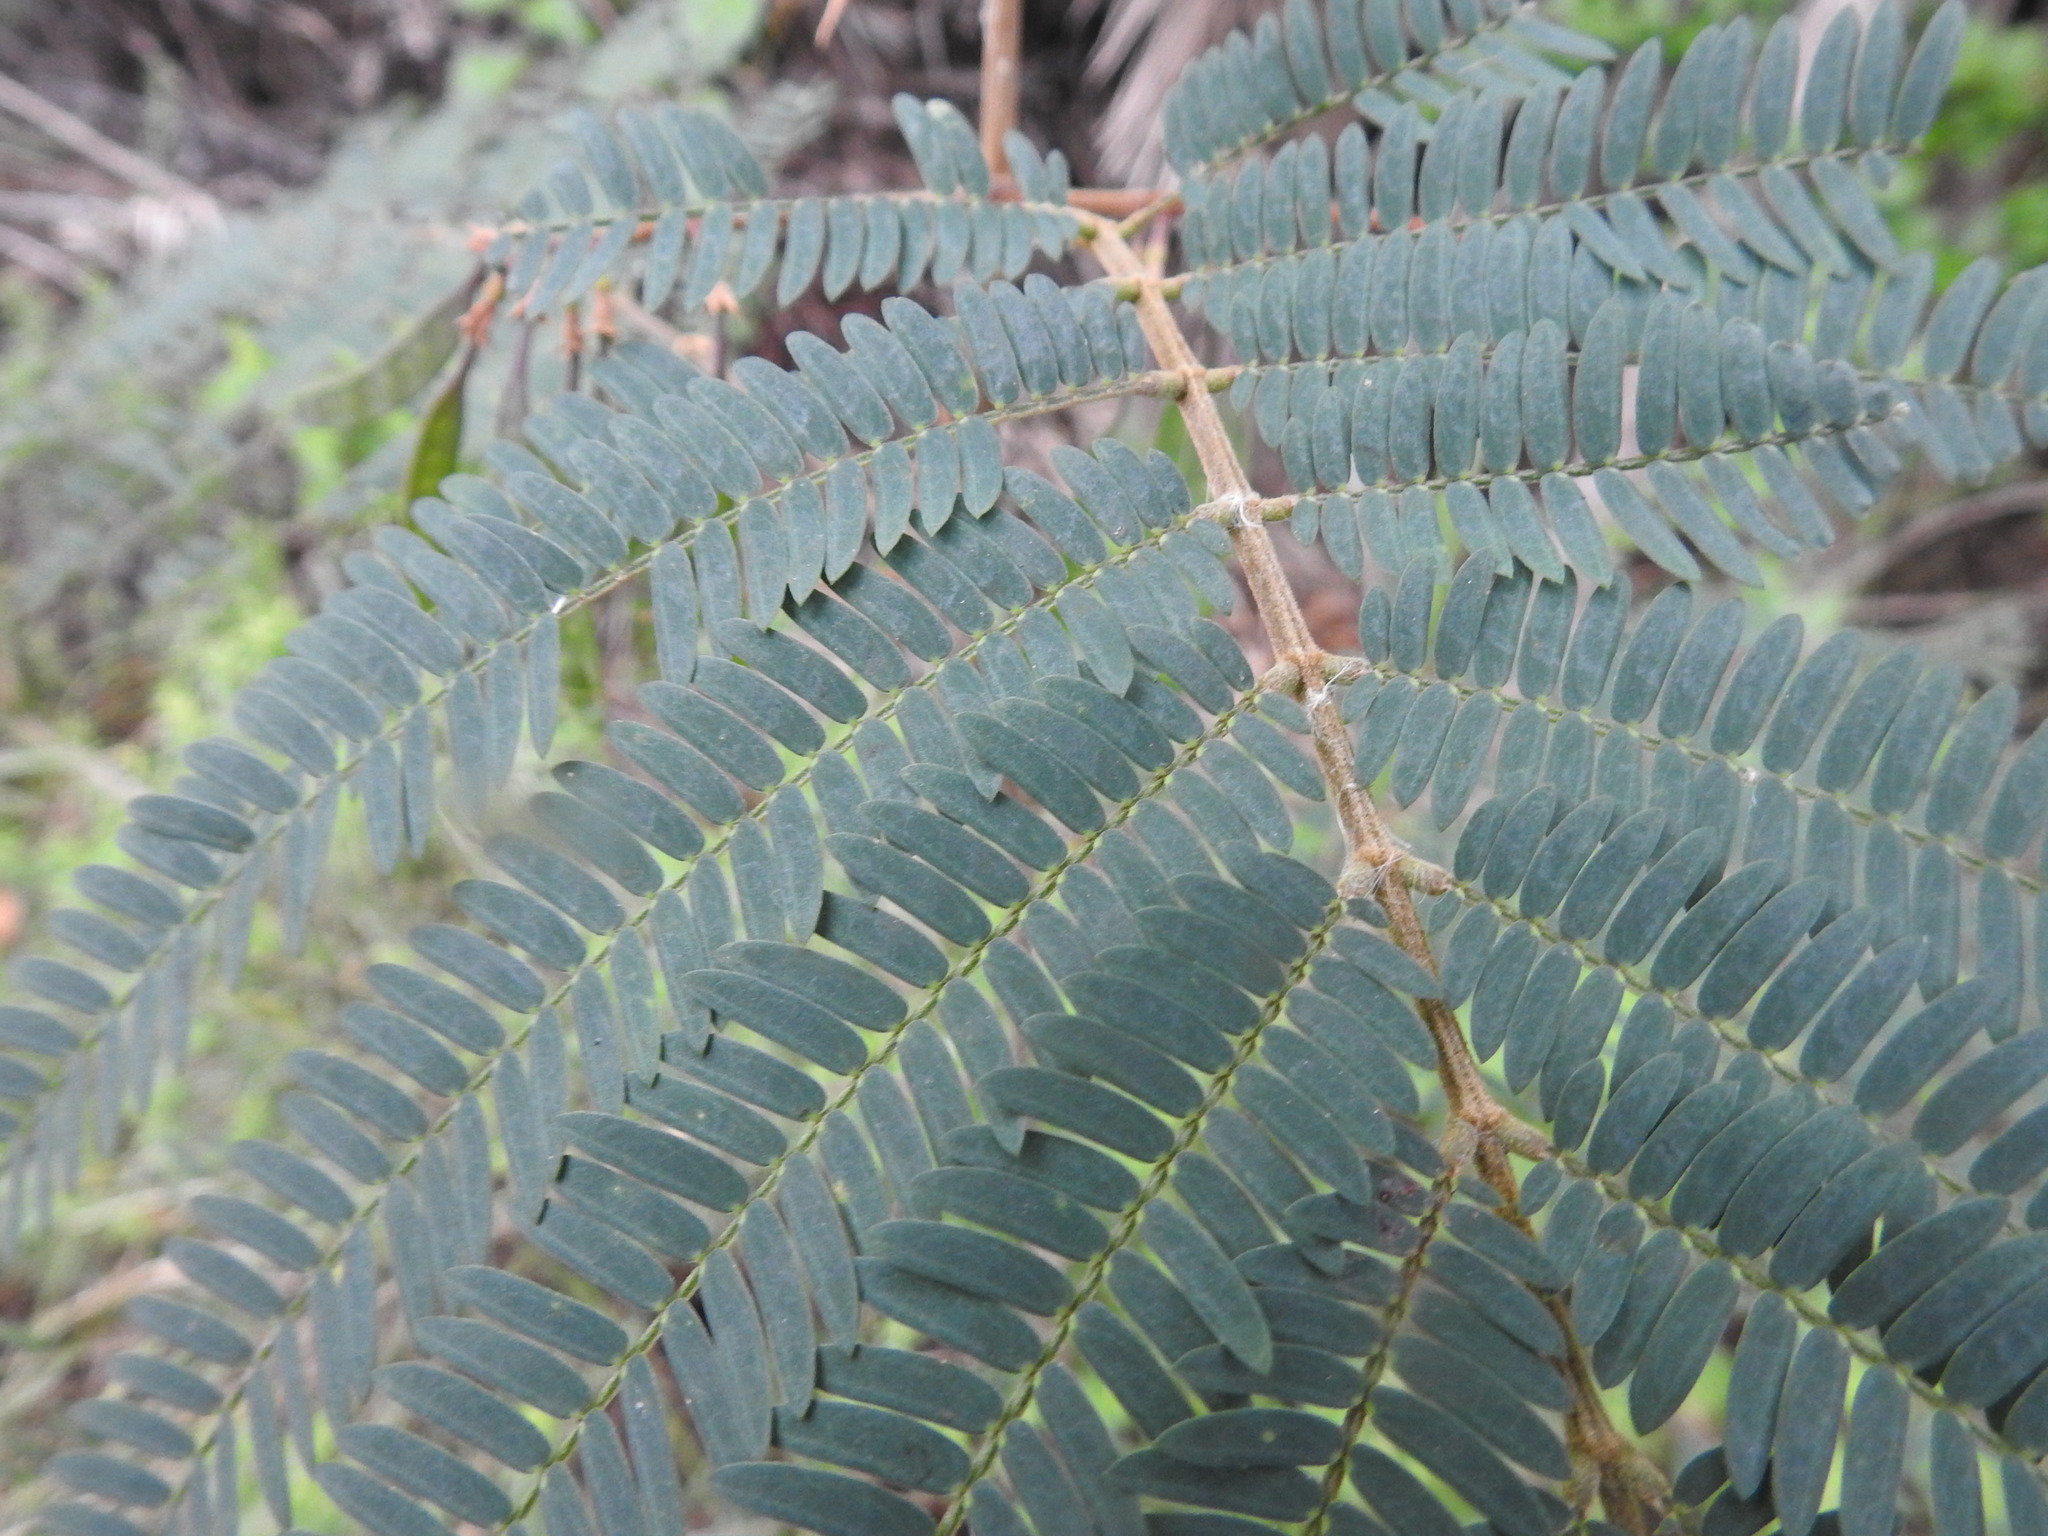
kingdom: Plantae
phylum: Tracheophyta
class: Magnoliopsida
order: Fabales
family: Fabaceae
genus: Paraserianthes
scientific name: Paraserianthes lophantha
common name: Plume albizia
